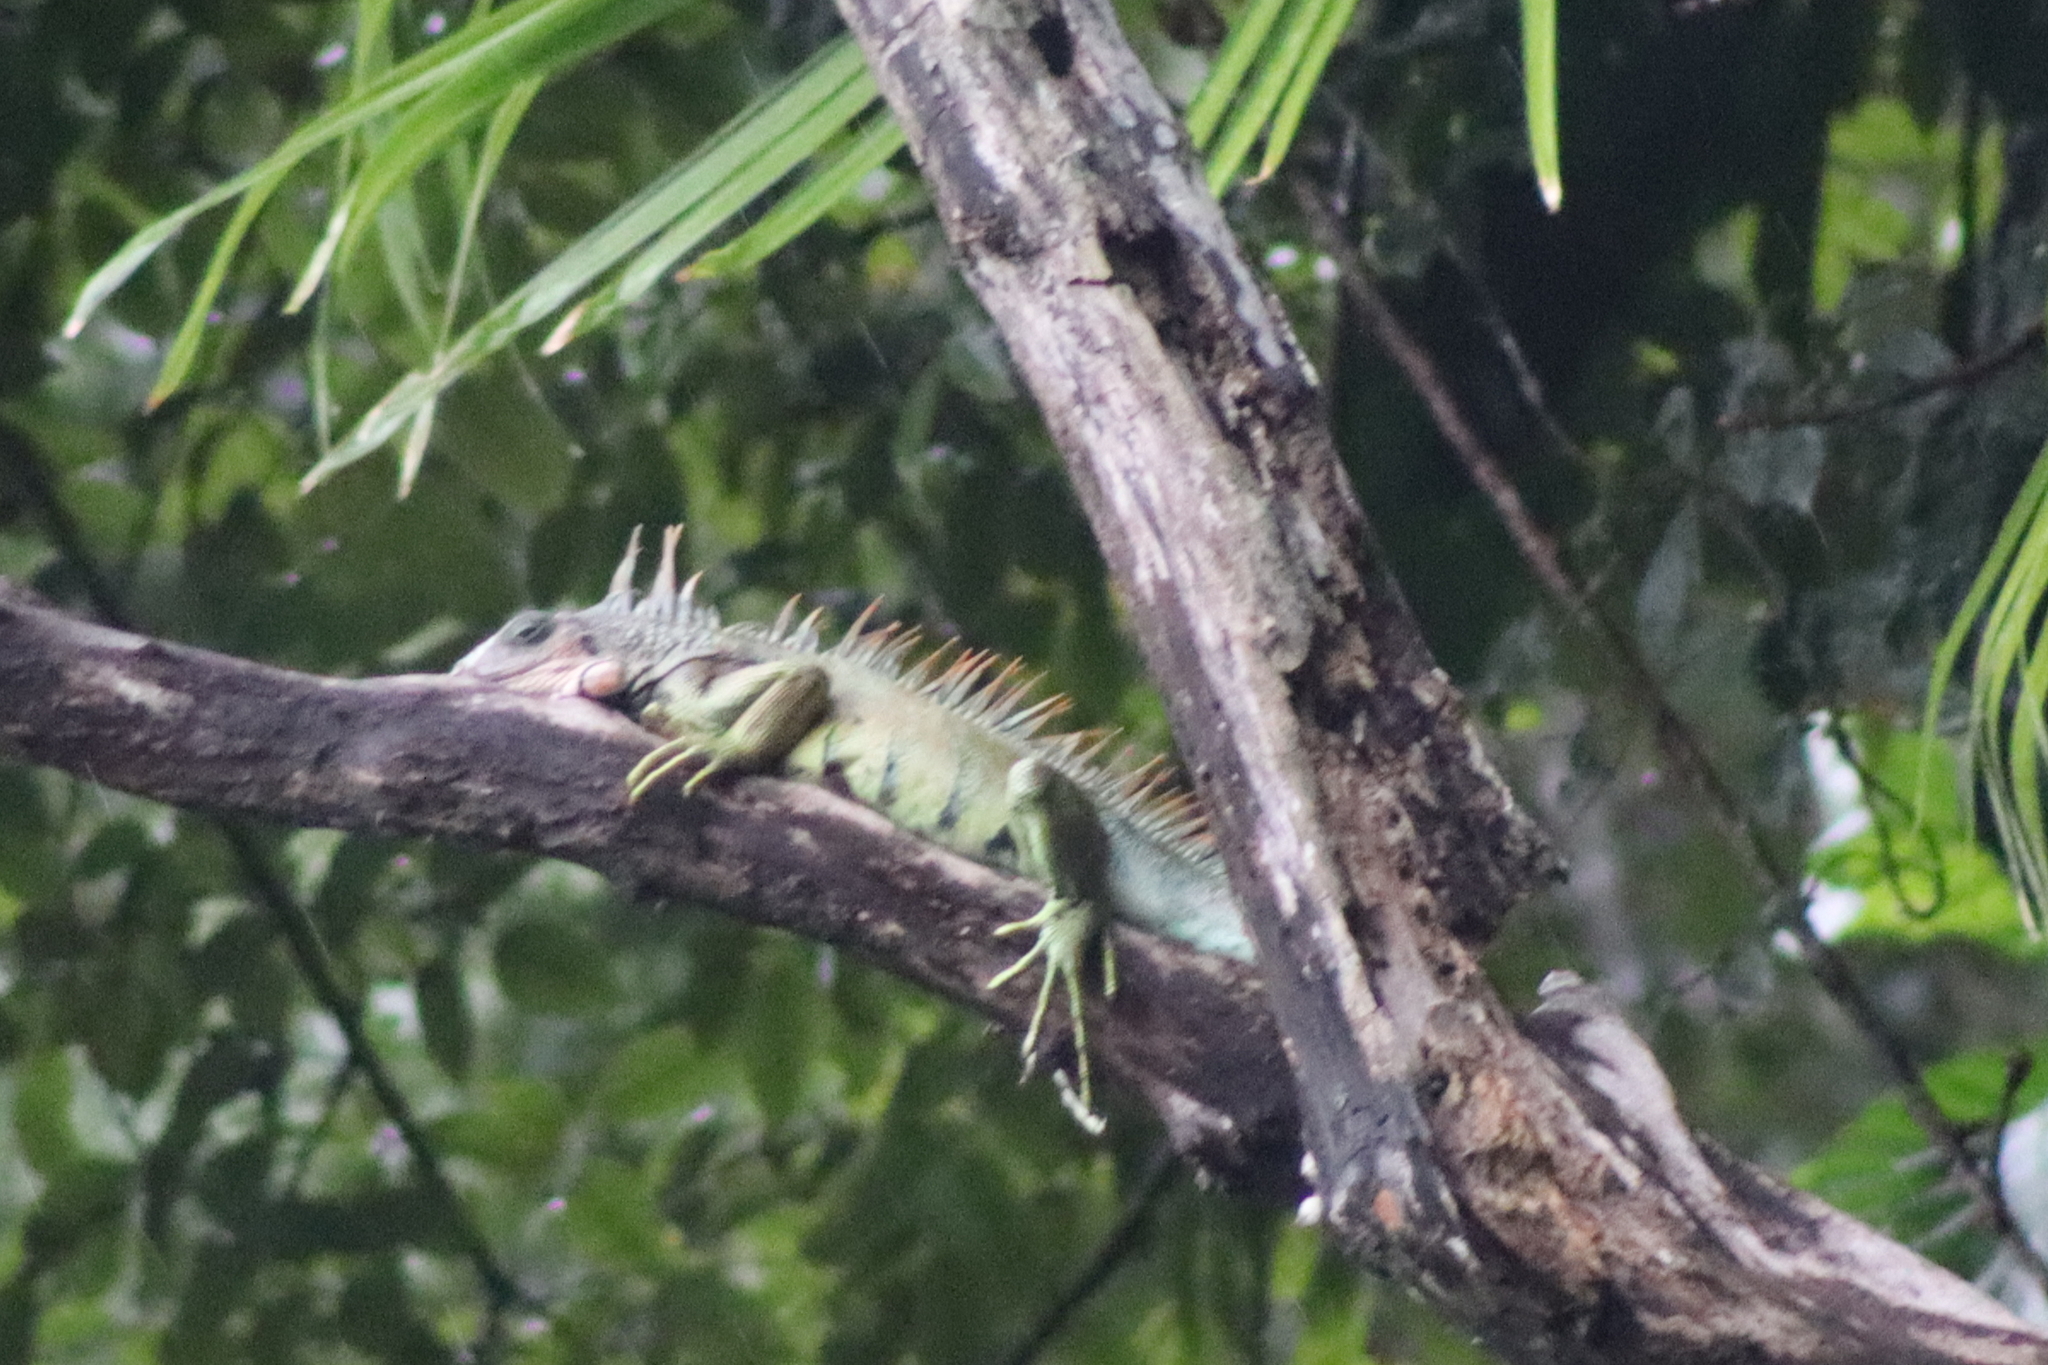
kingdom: Animalia
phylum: Chordata
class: Squamata
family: Iguanidae
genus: Iguana
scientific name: Iguana iguana
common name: Green iguana
